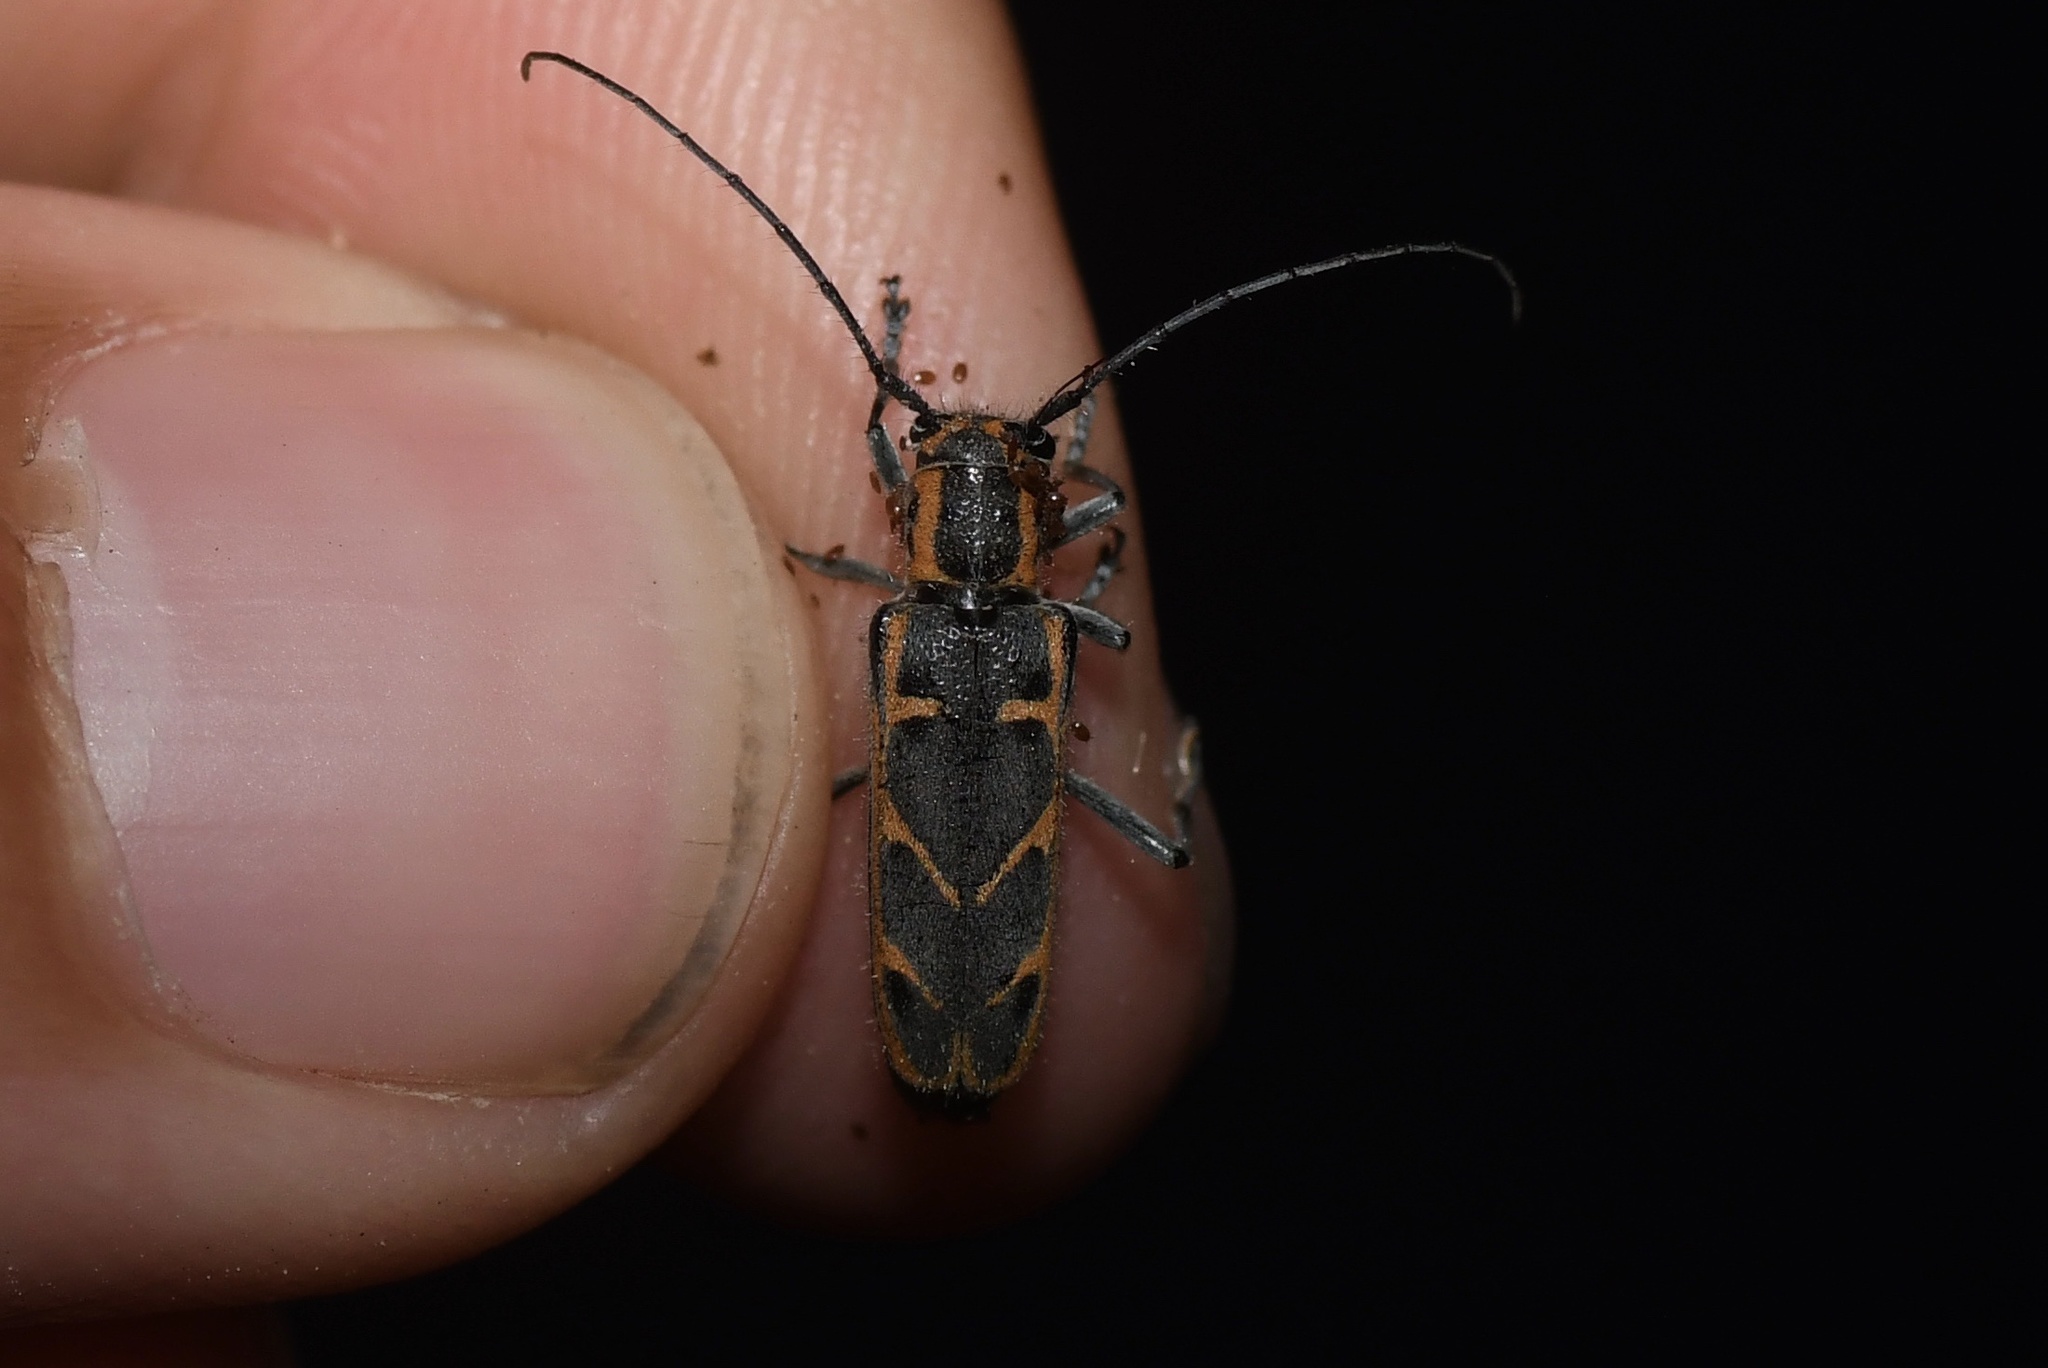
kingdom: Animalia
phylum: Arthropoda
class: Insecta
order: Coleoptera
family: Cerambycidae
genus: Saperda
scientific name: Saperda tridentata
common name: Elm borer
